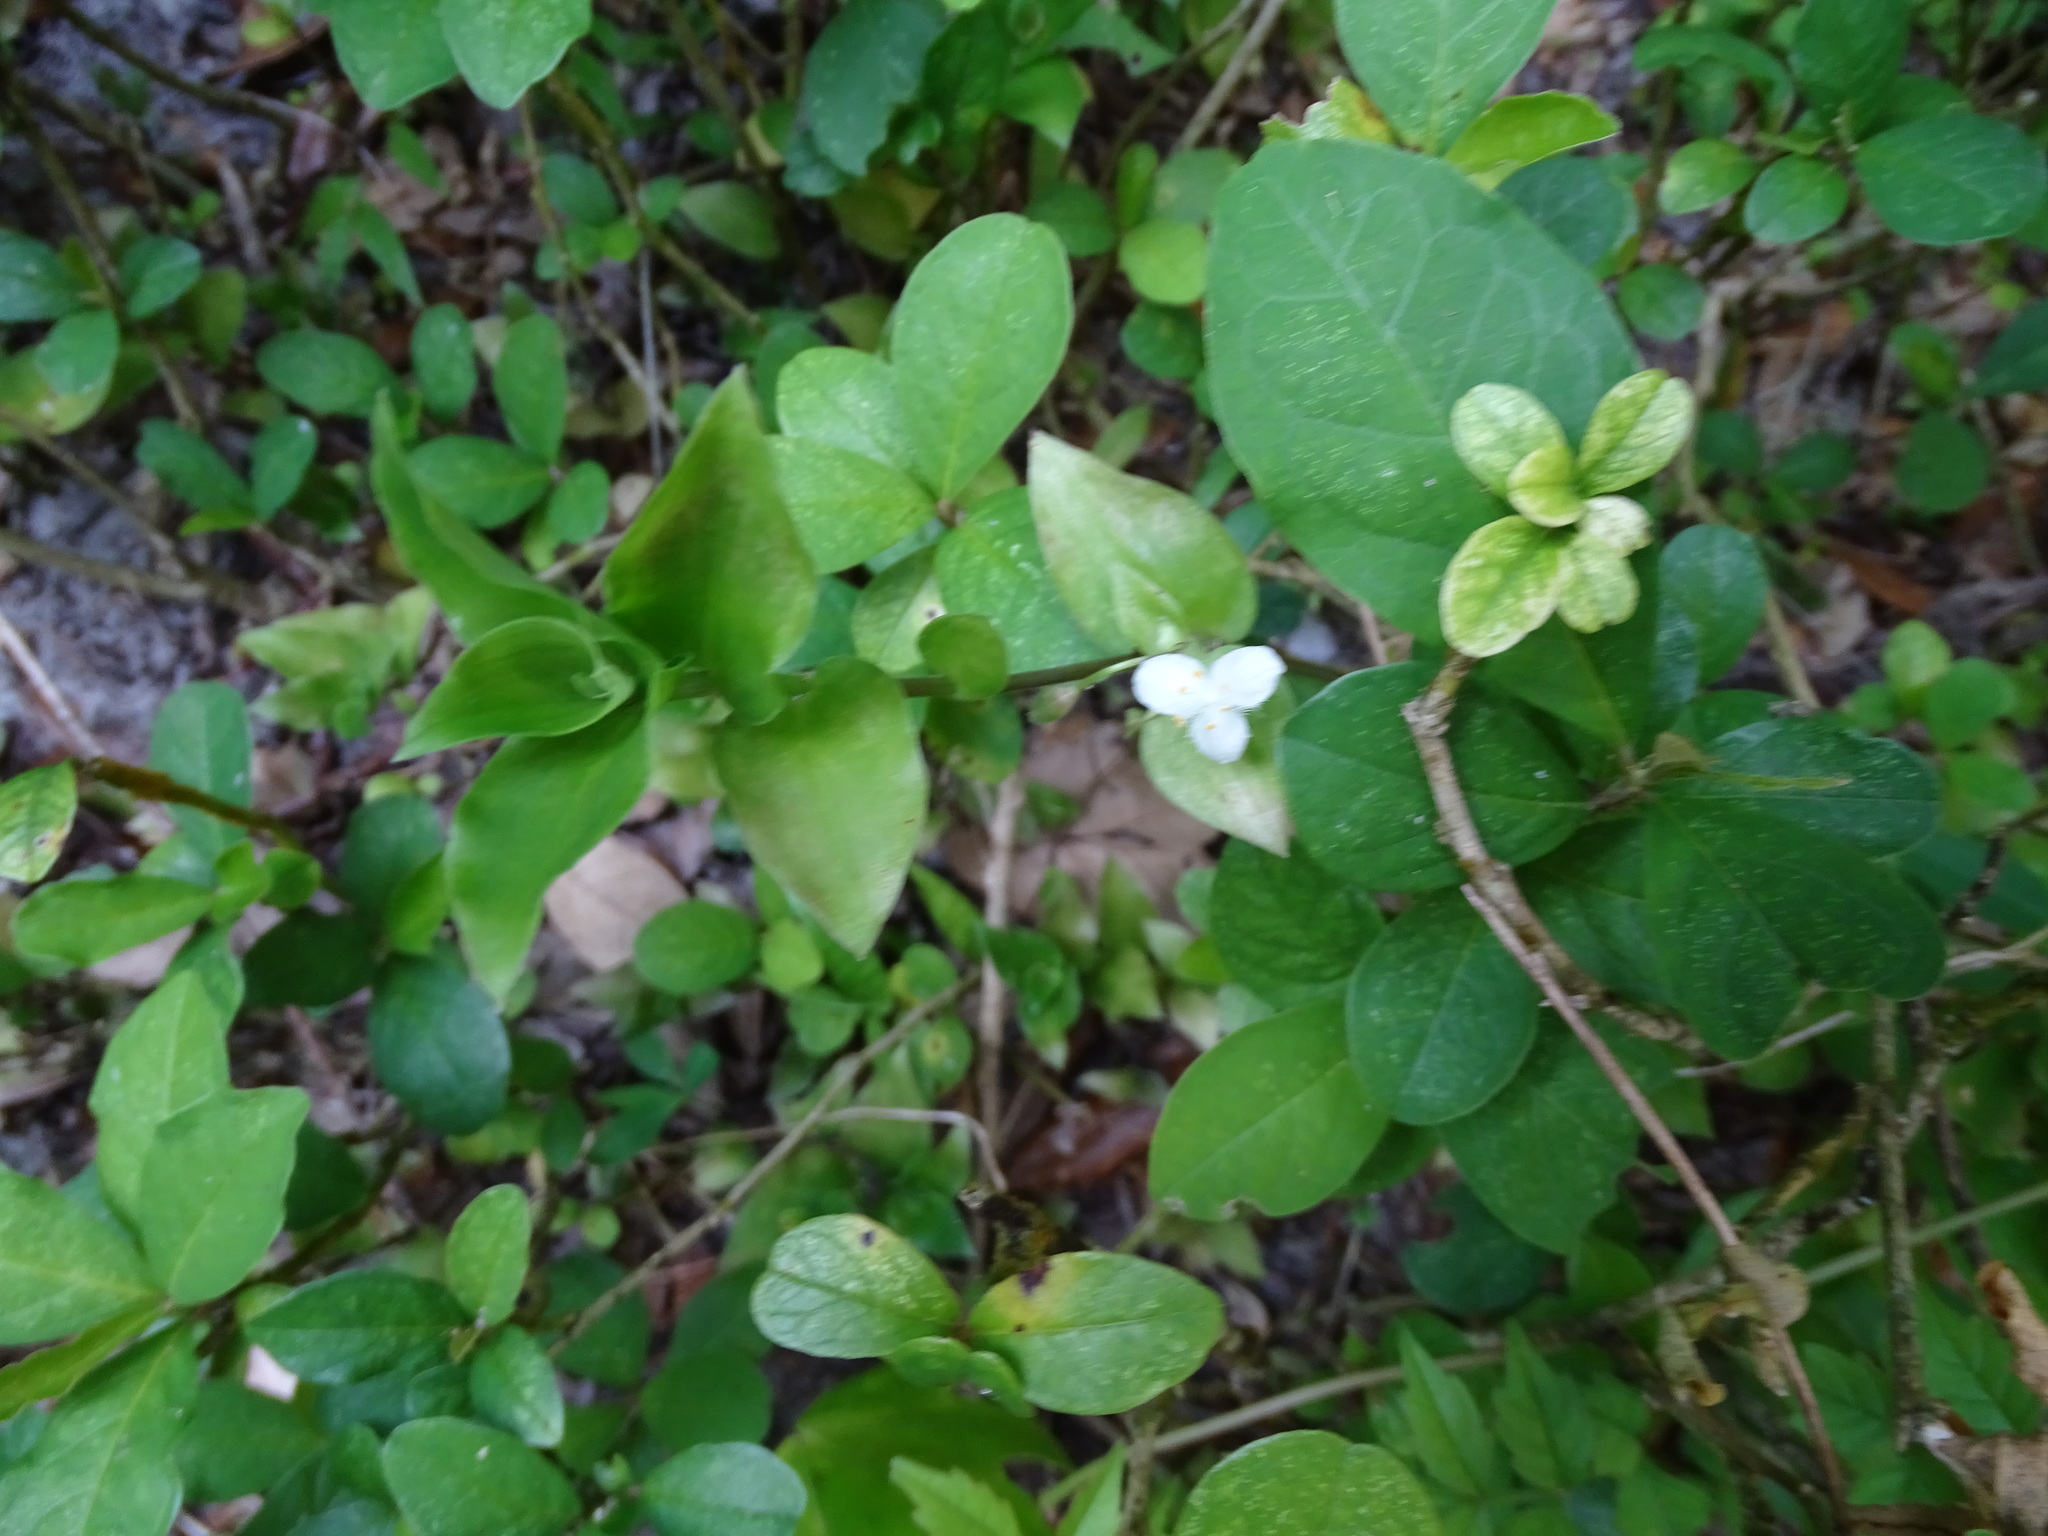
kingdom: Plantae
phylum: Tracheophyta
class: Liliopsida
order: Commelinales
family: Commelinaceae
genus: Tradescantia
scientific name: Tradescantia fluminensis
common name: Wandering-jew
